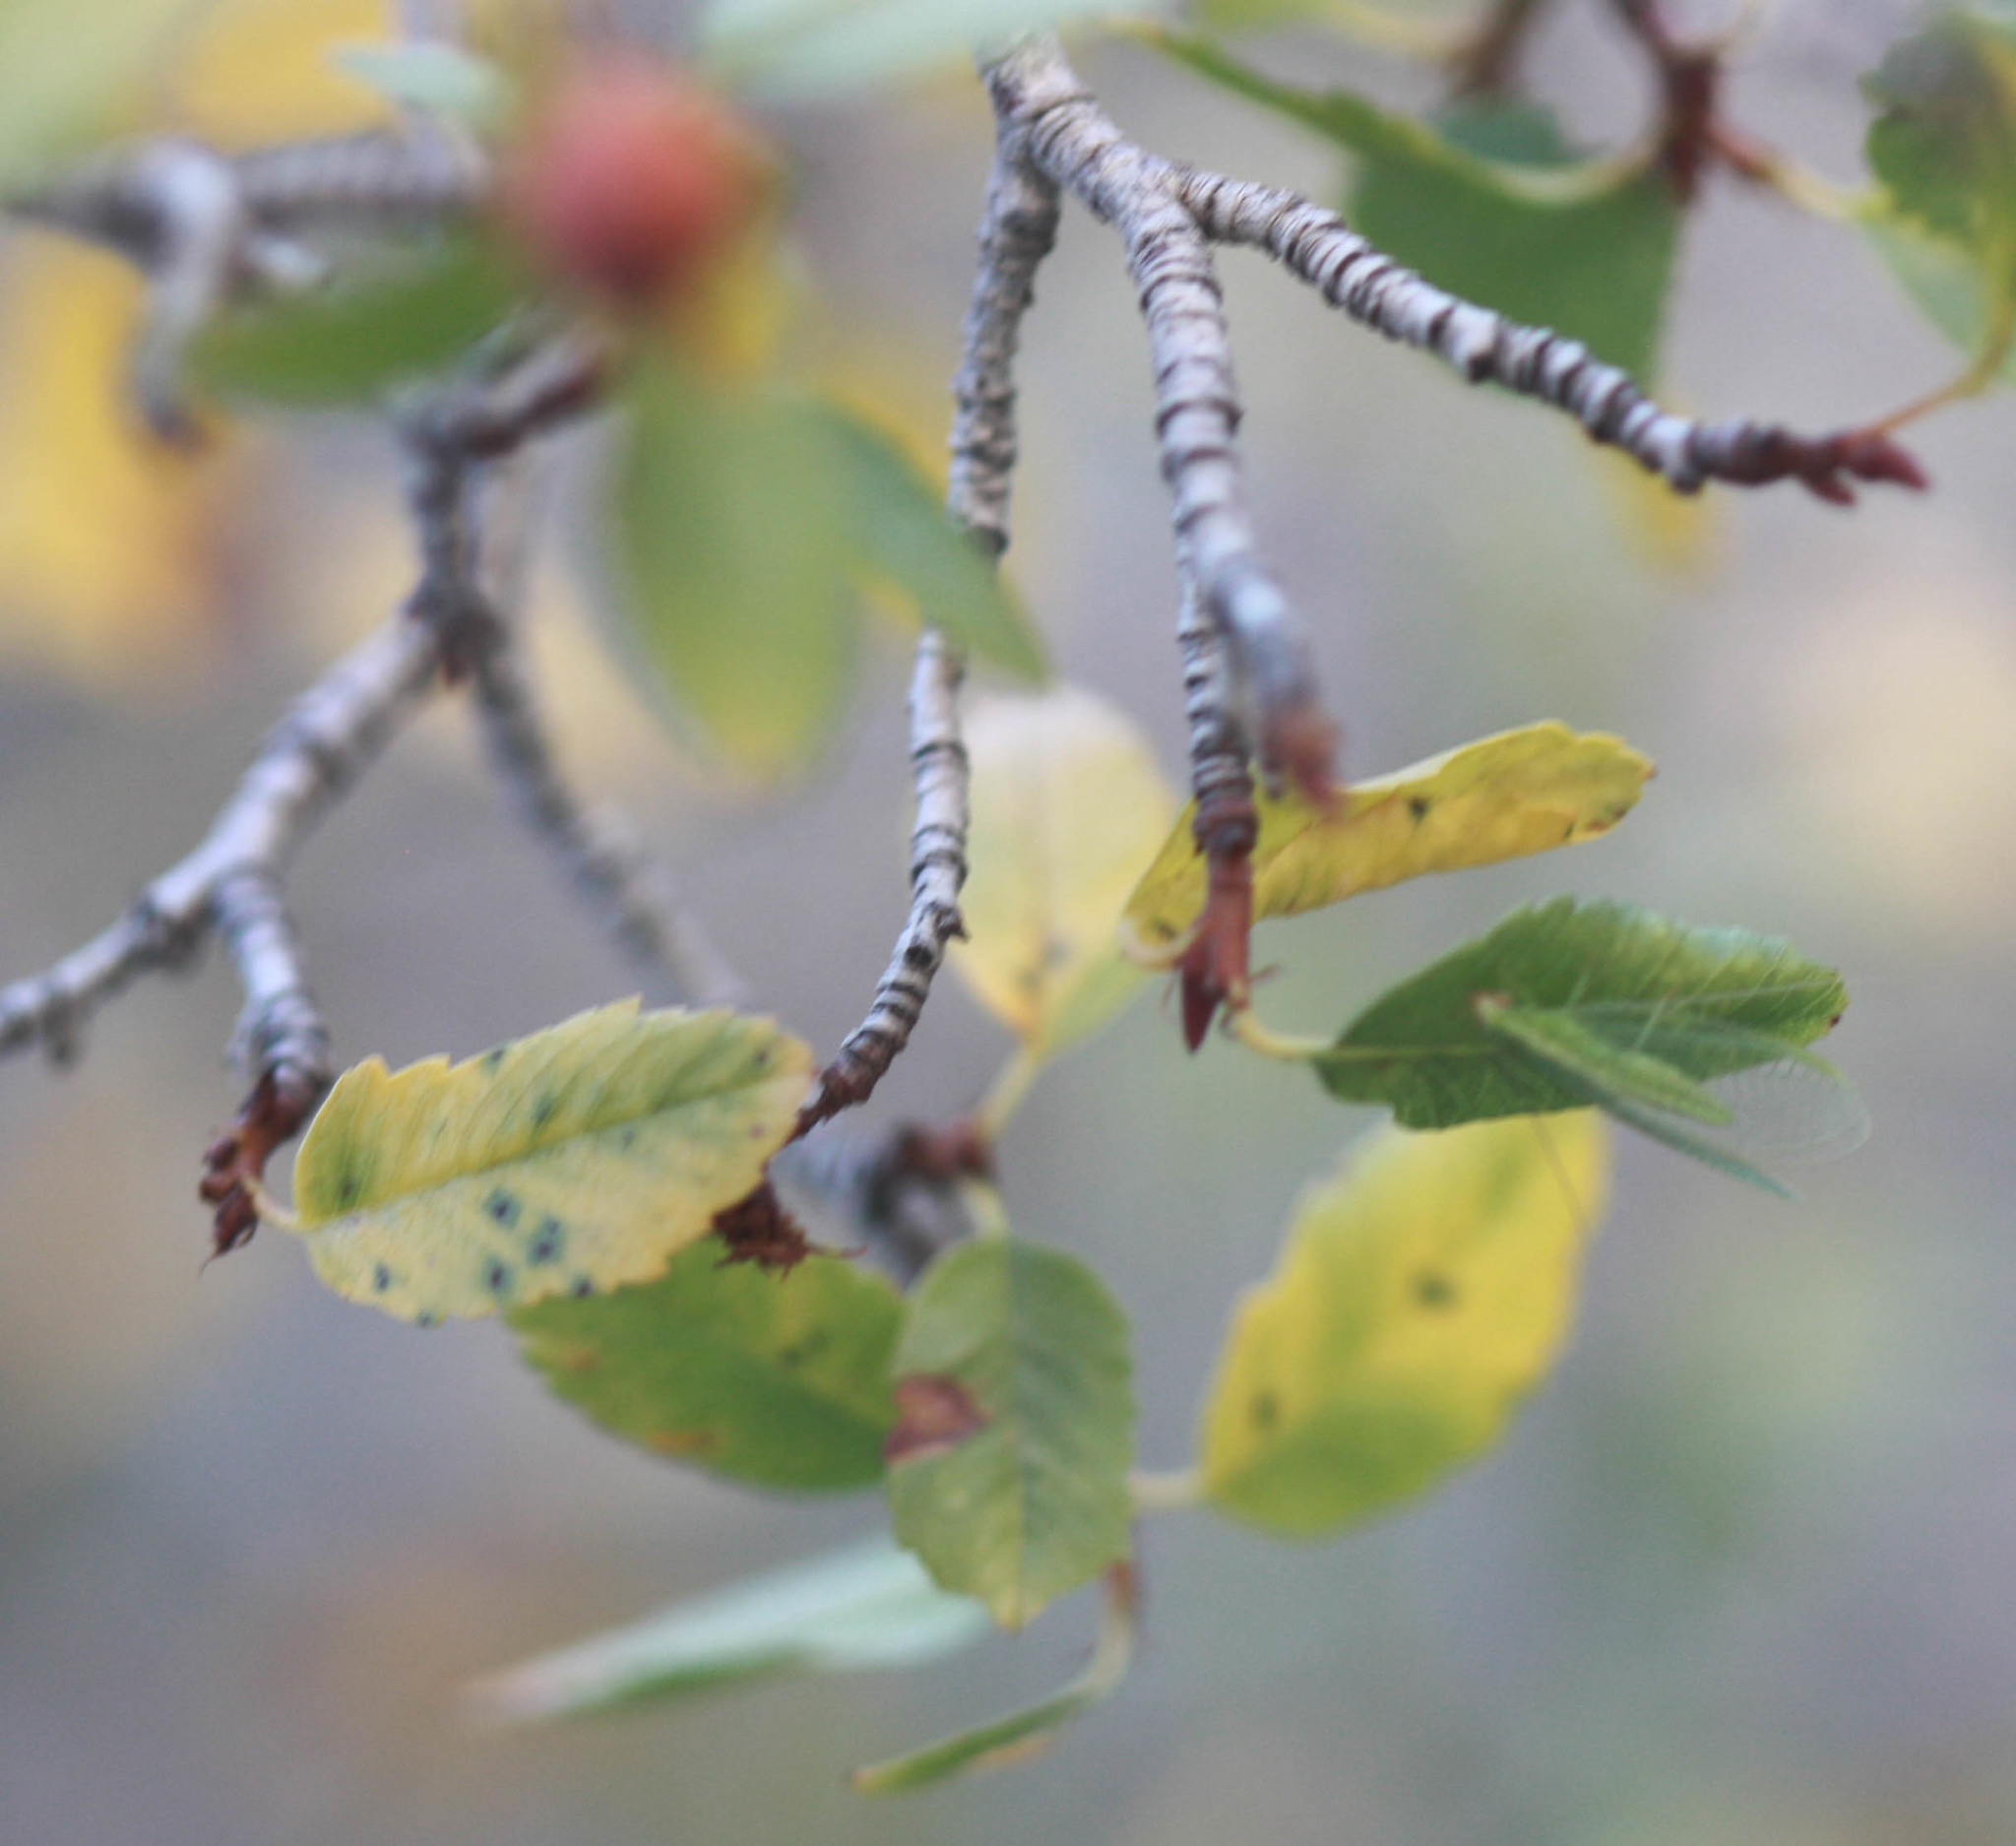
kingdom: Plantae
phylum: Tracheophyta
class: Magnoliopsida
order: Rosales
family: Rosaceae
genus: Amelanchier
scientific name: Amelanchier utahensis
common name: Utah serviceberry
